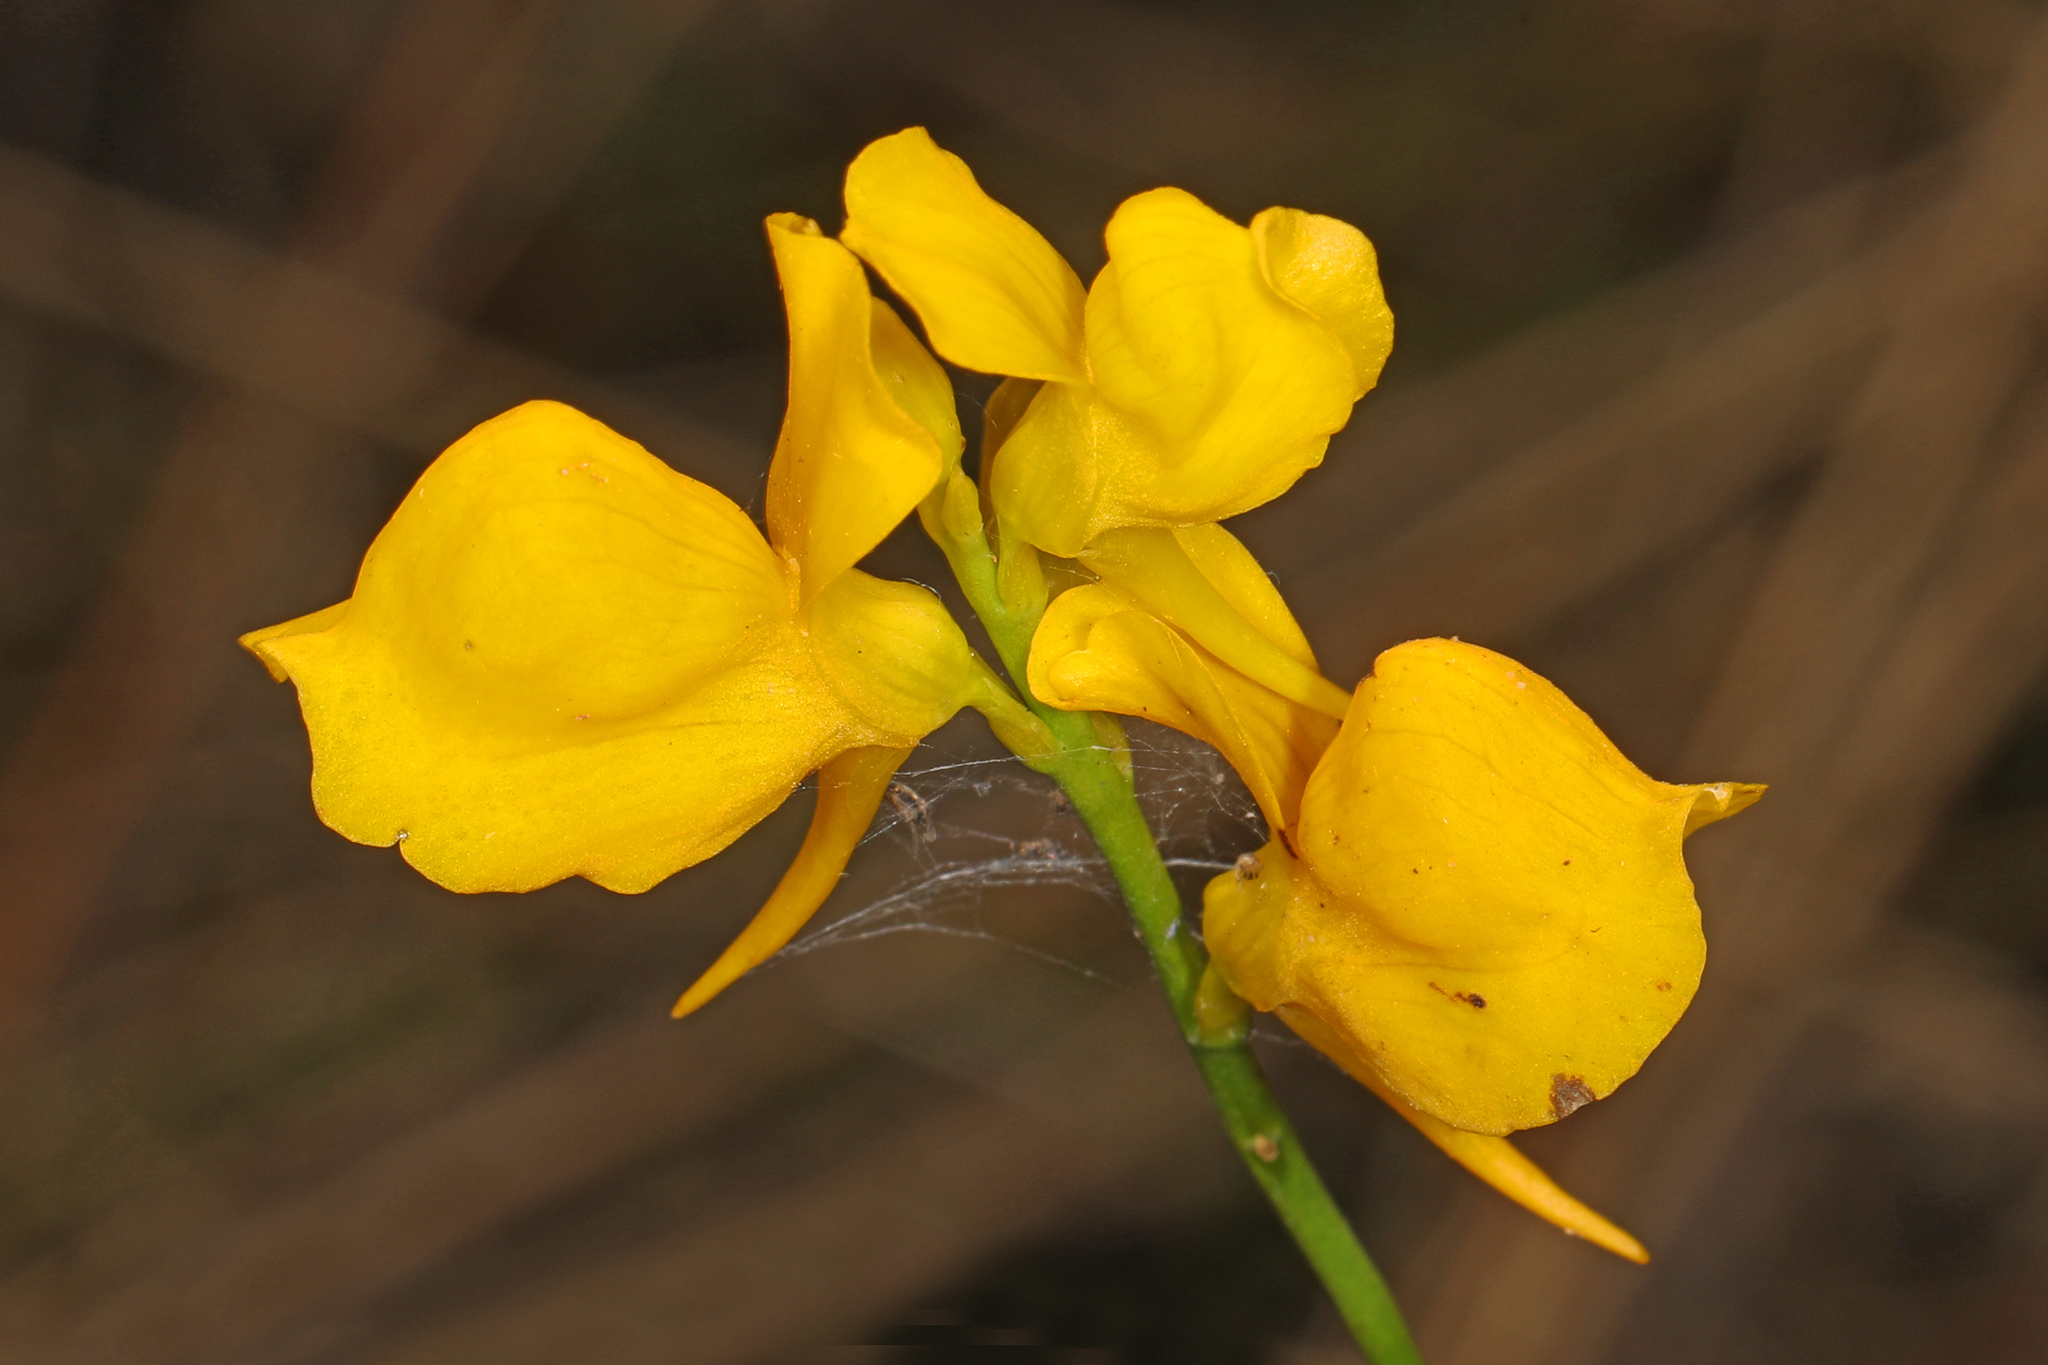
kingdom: Plantae
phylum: Tracheophyta
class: Magnoliopsida
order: Lamiales
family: Lentibulariaceae
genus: Utricularia
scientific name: Utricularia cornuta
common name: Horned bladderwort
